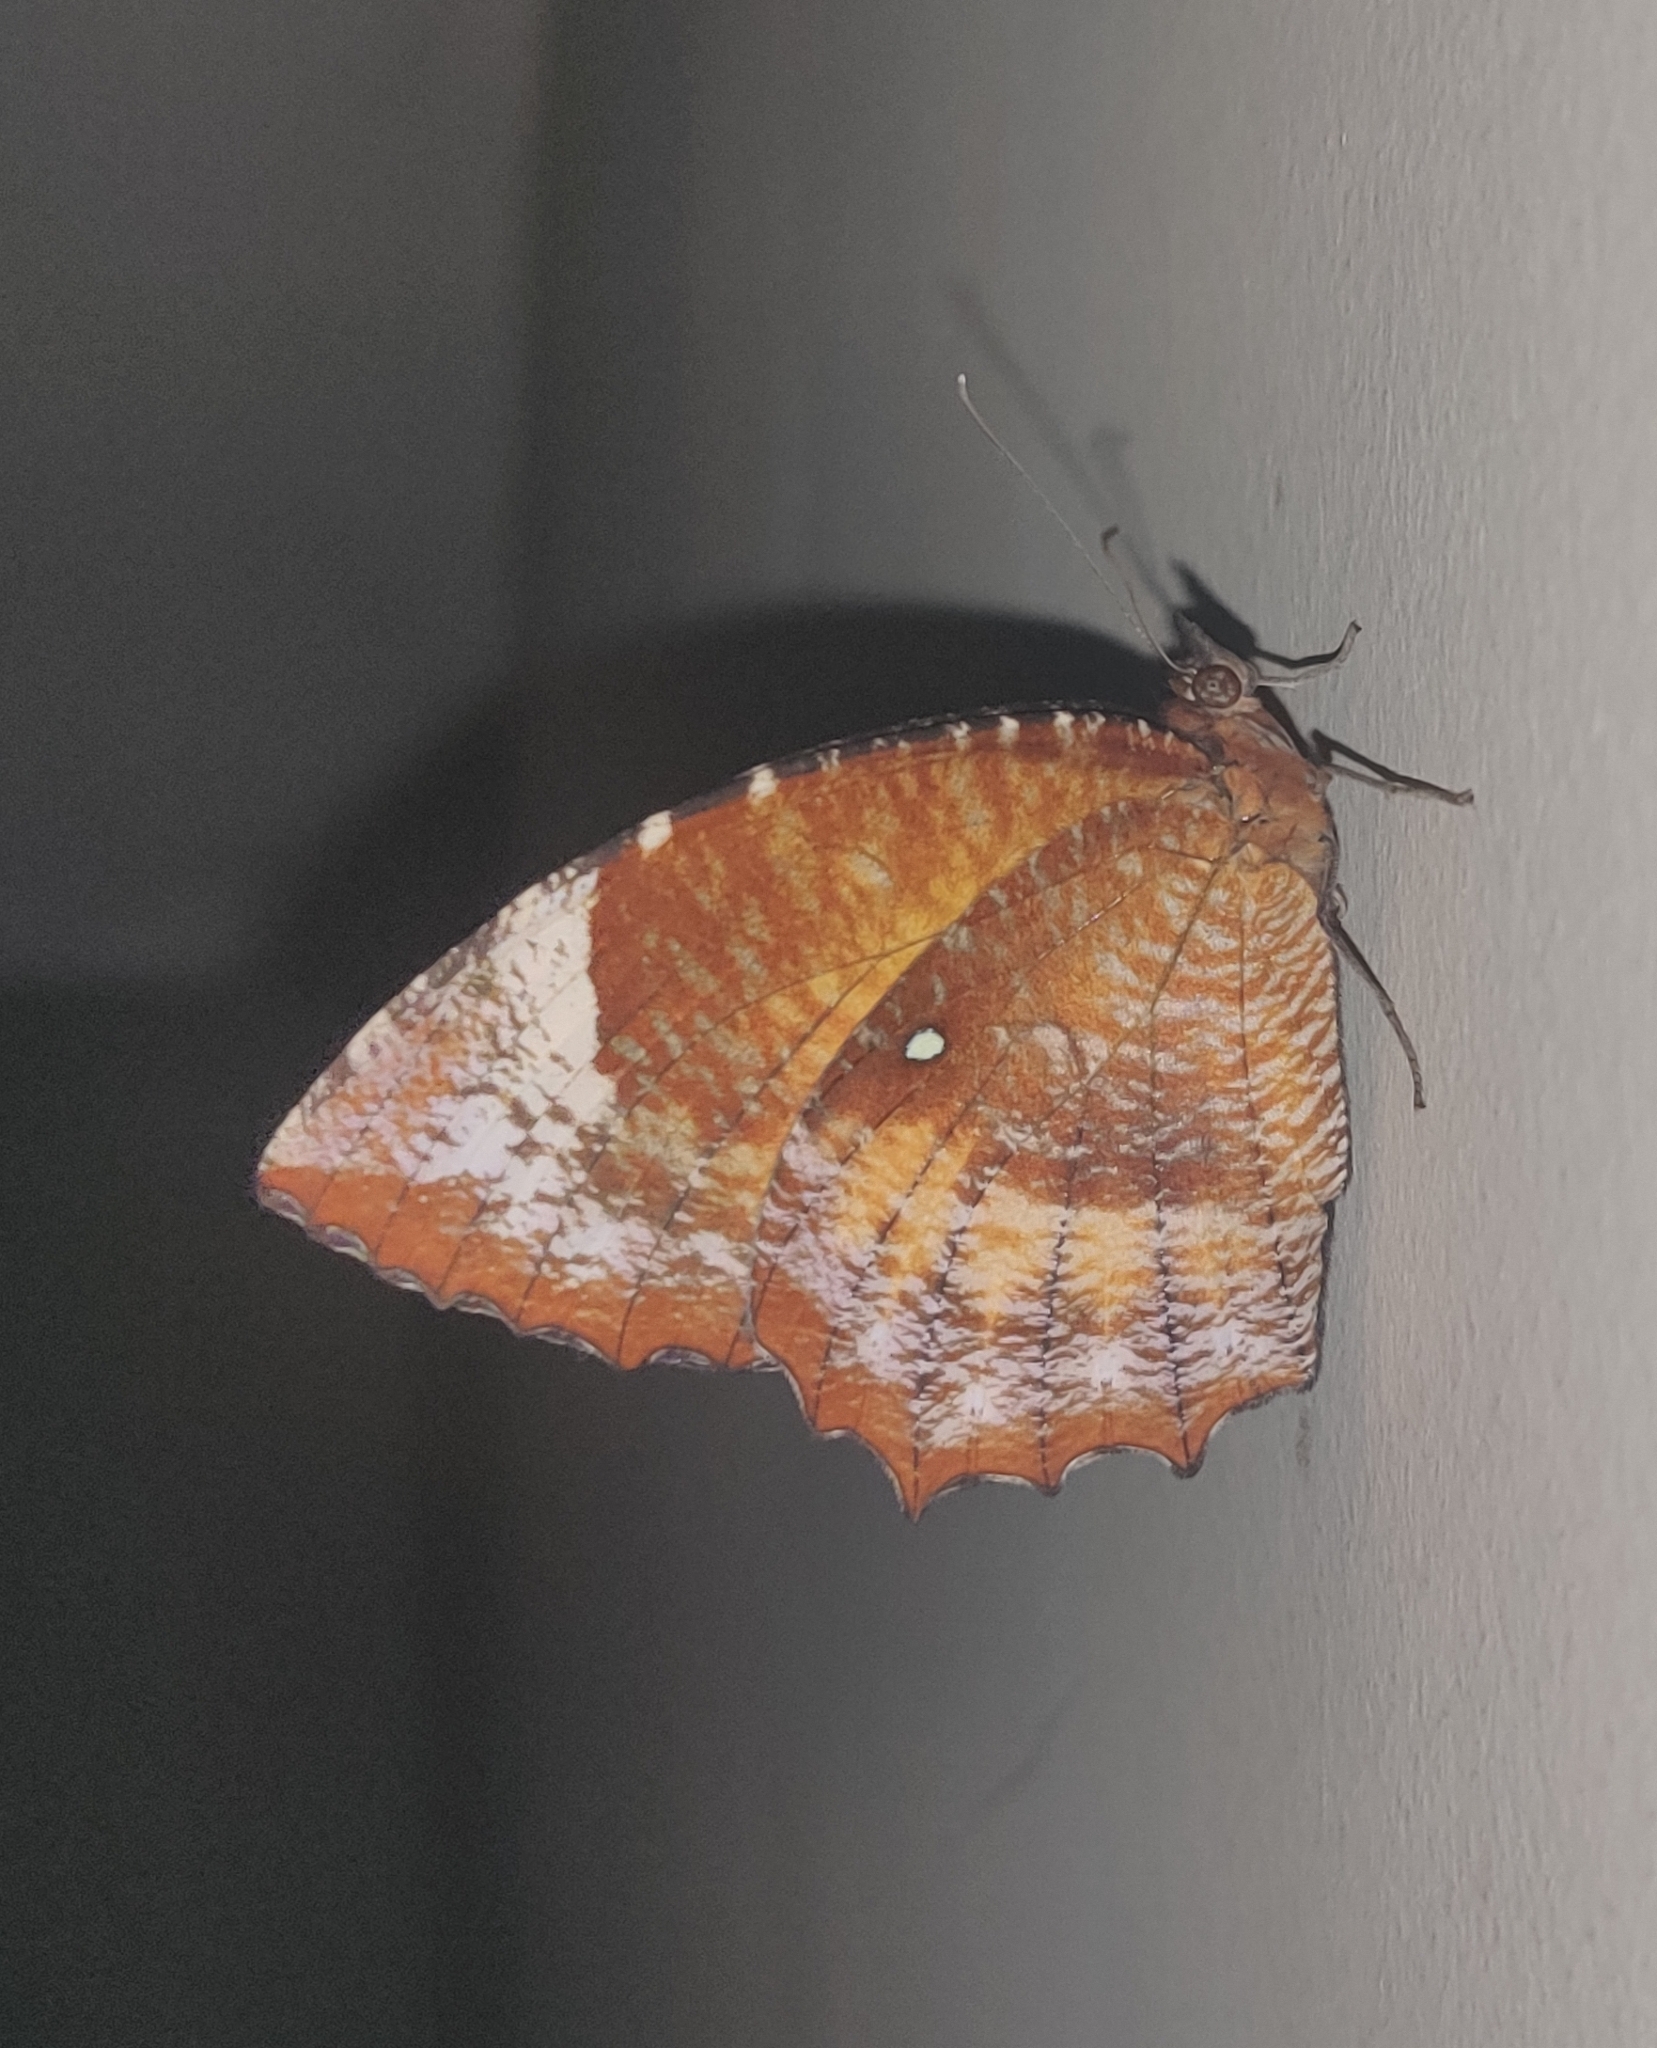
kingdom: Animalia
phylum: Arthropoda
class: Insecta
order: Lepidoptera
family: Nymphalidae
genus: Elymnias
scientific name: Elymnias hypermnestra
